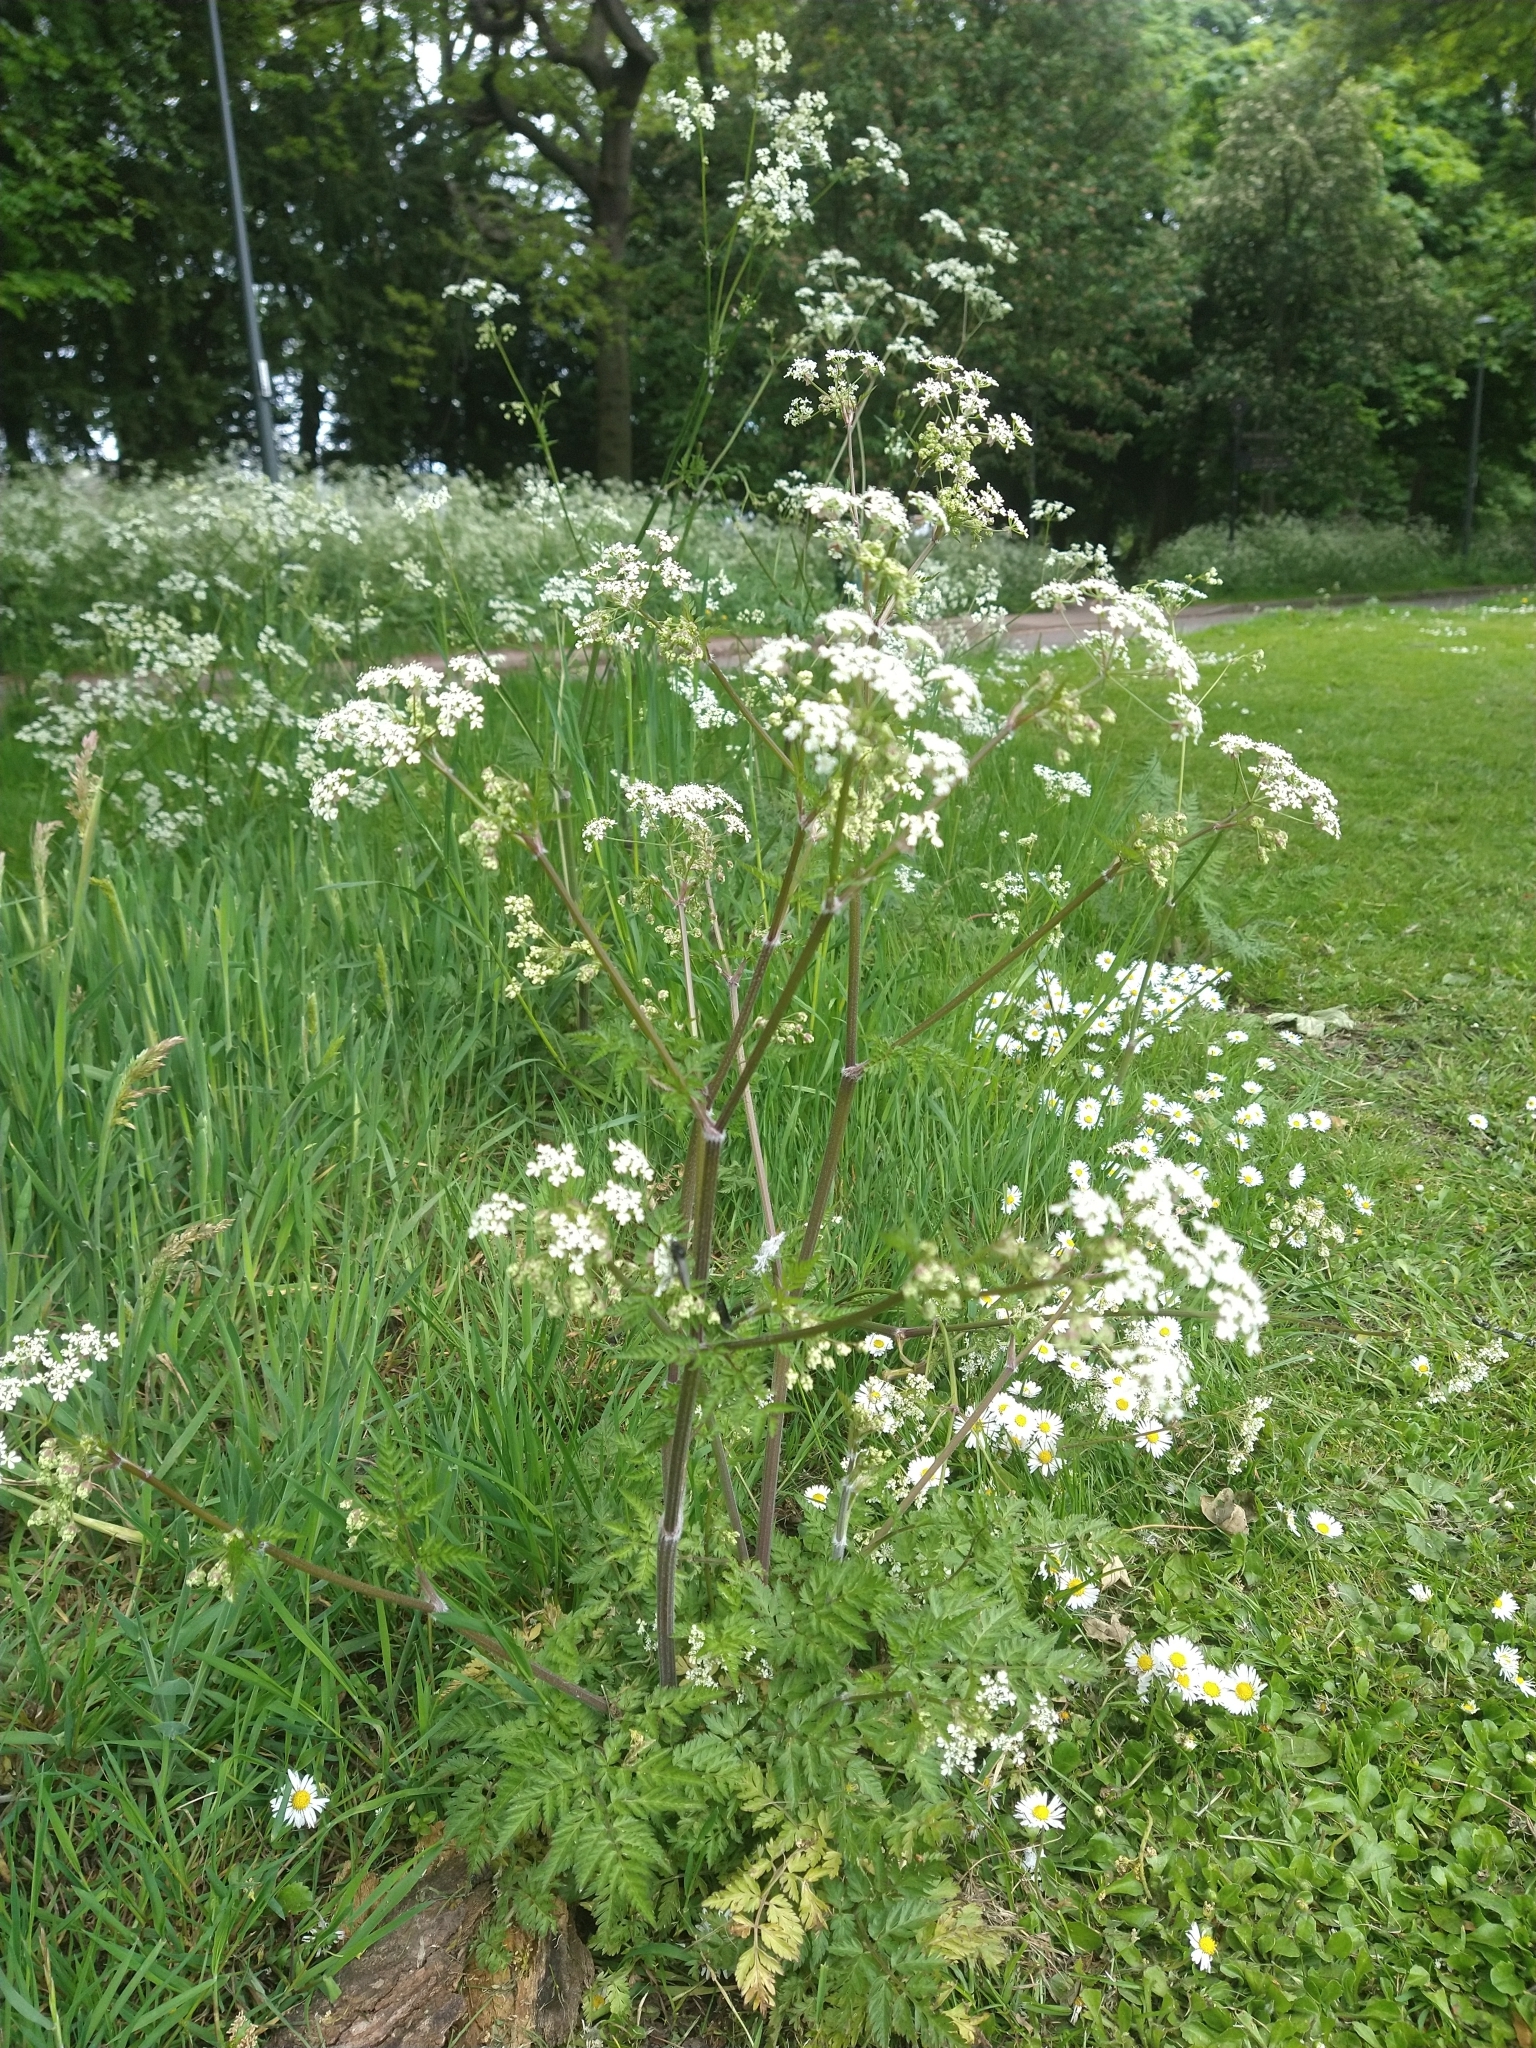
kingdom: Plantae
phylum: Tracheophyta
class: Magnoliopsida
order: Apiales
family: Apiaceae
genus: Anthriscus
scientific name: Anthriscus sylvestris
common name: Cow parsley
